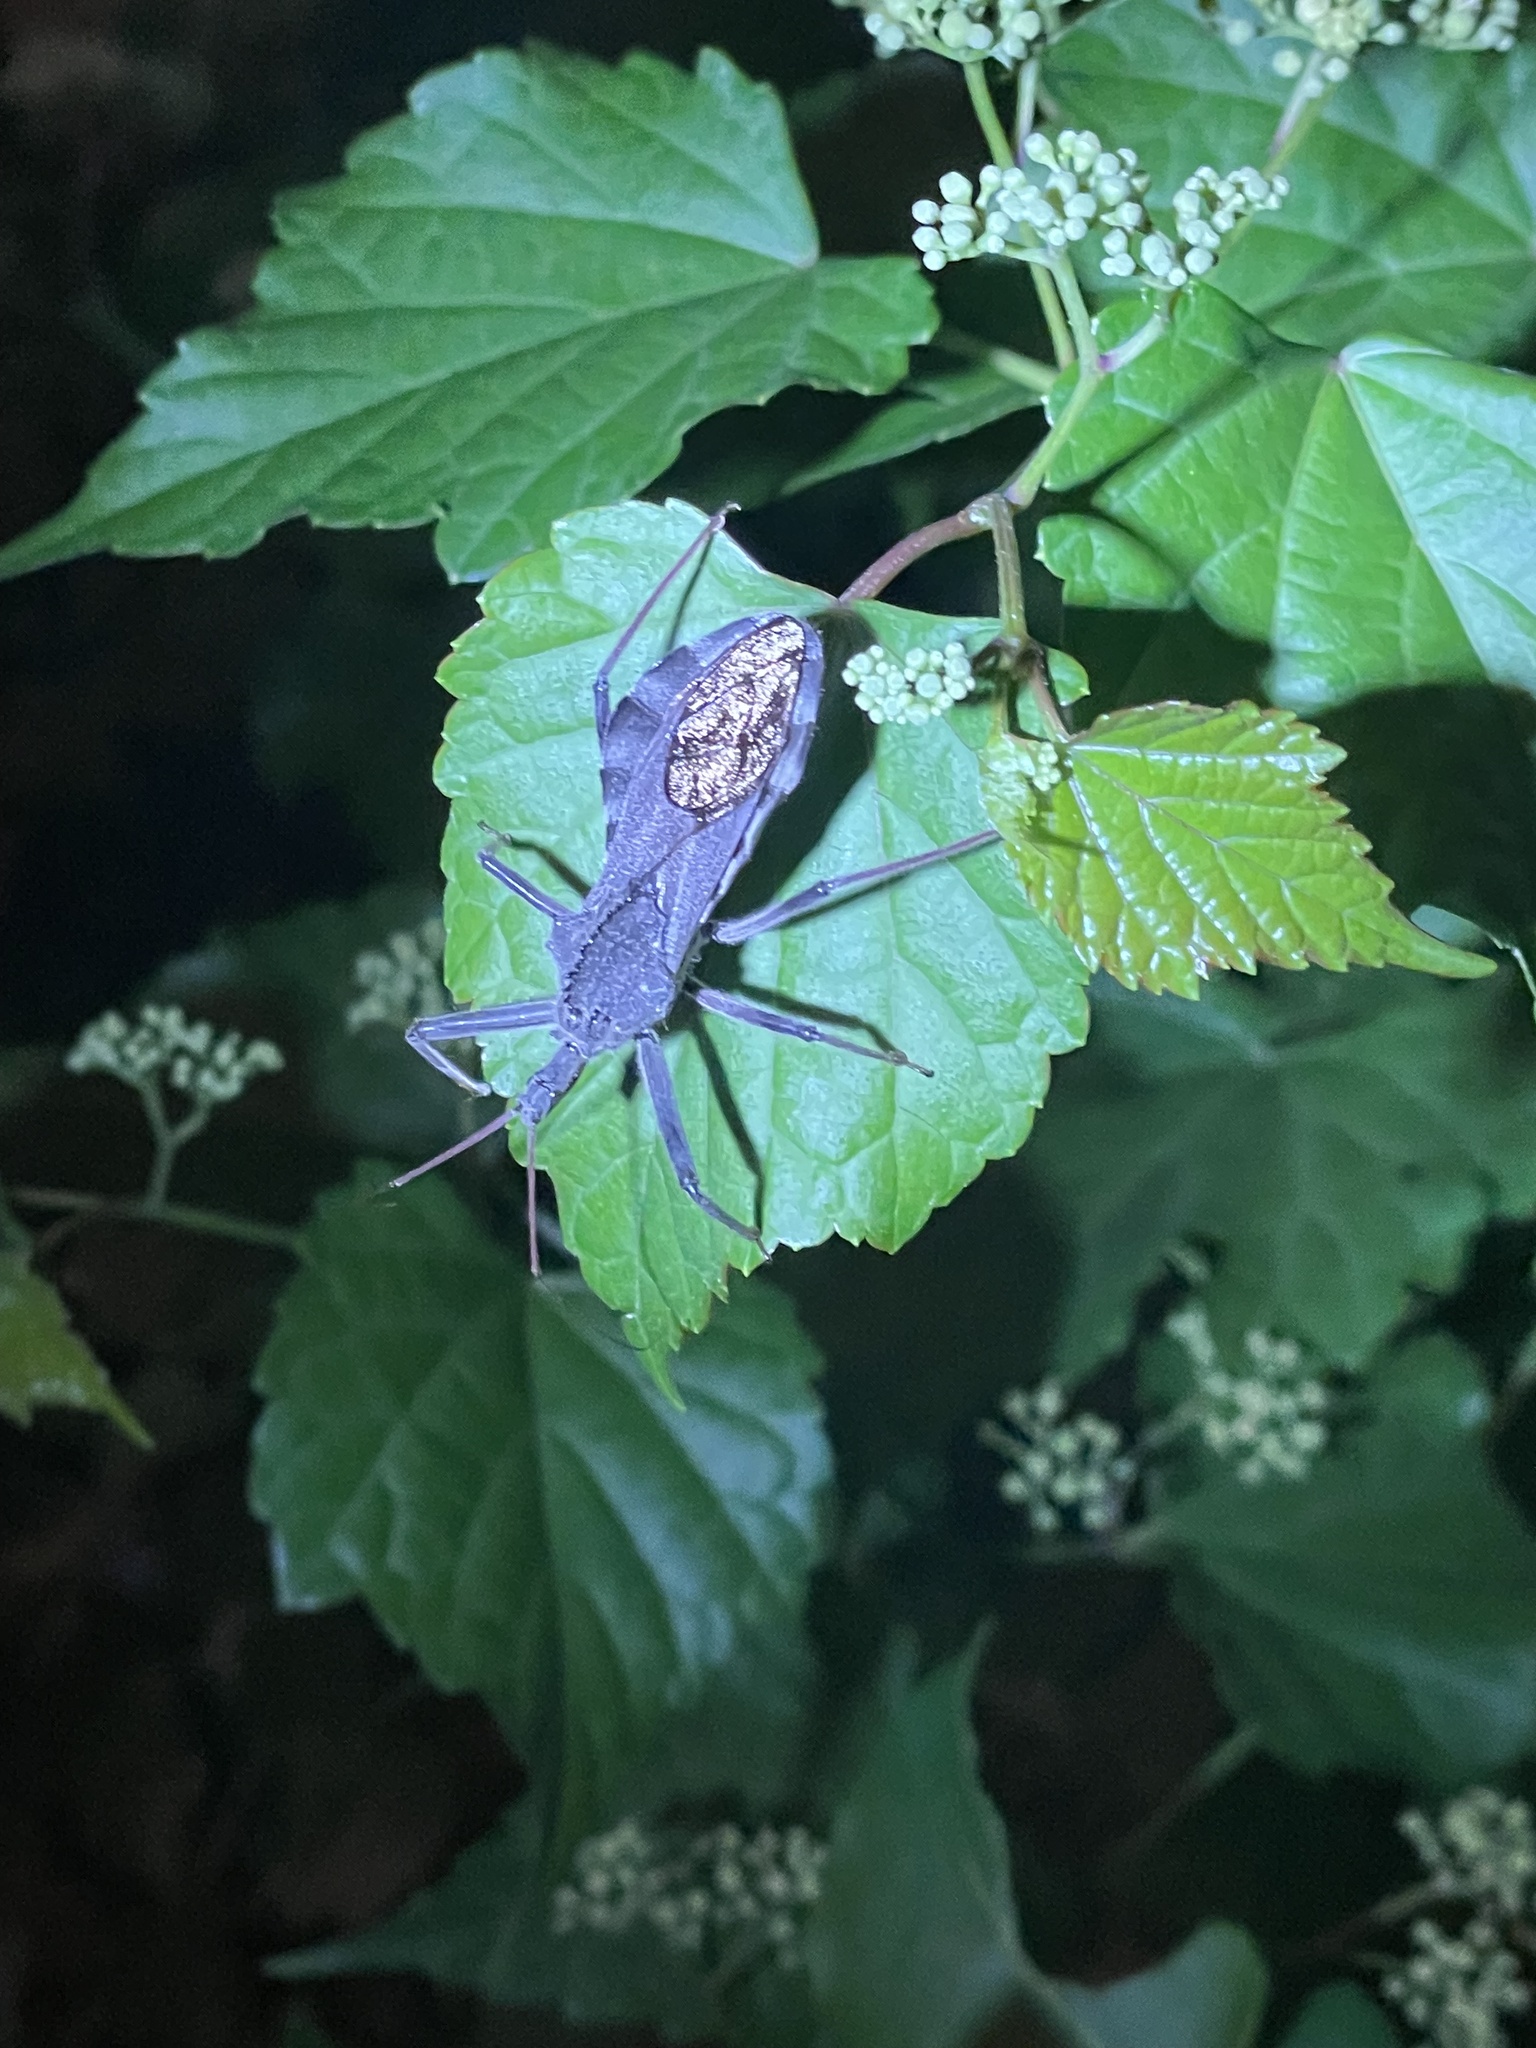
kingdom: Animalia
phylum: Arthropoda
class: Insecta
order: Hemiptera
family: Reduviidae
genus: Arilus
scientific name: Arilus cristatus
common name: North american wheel bug
